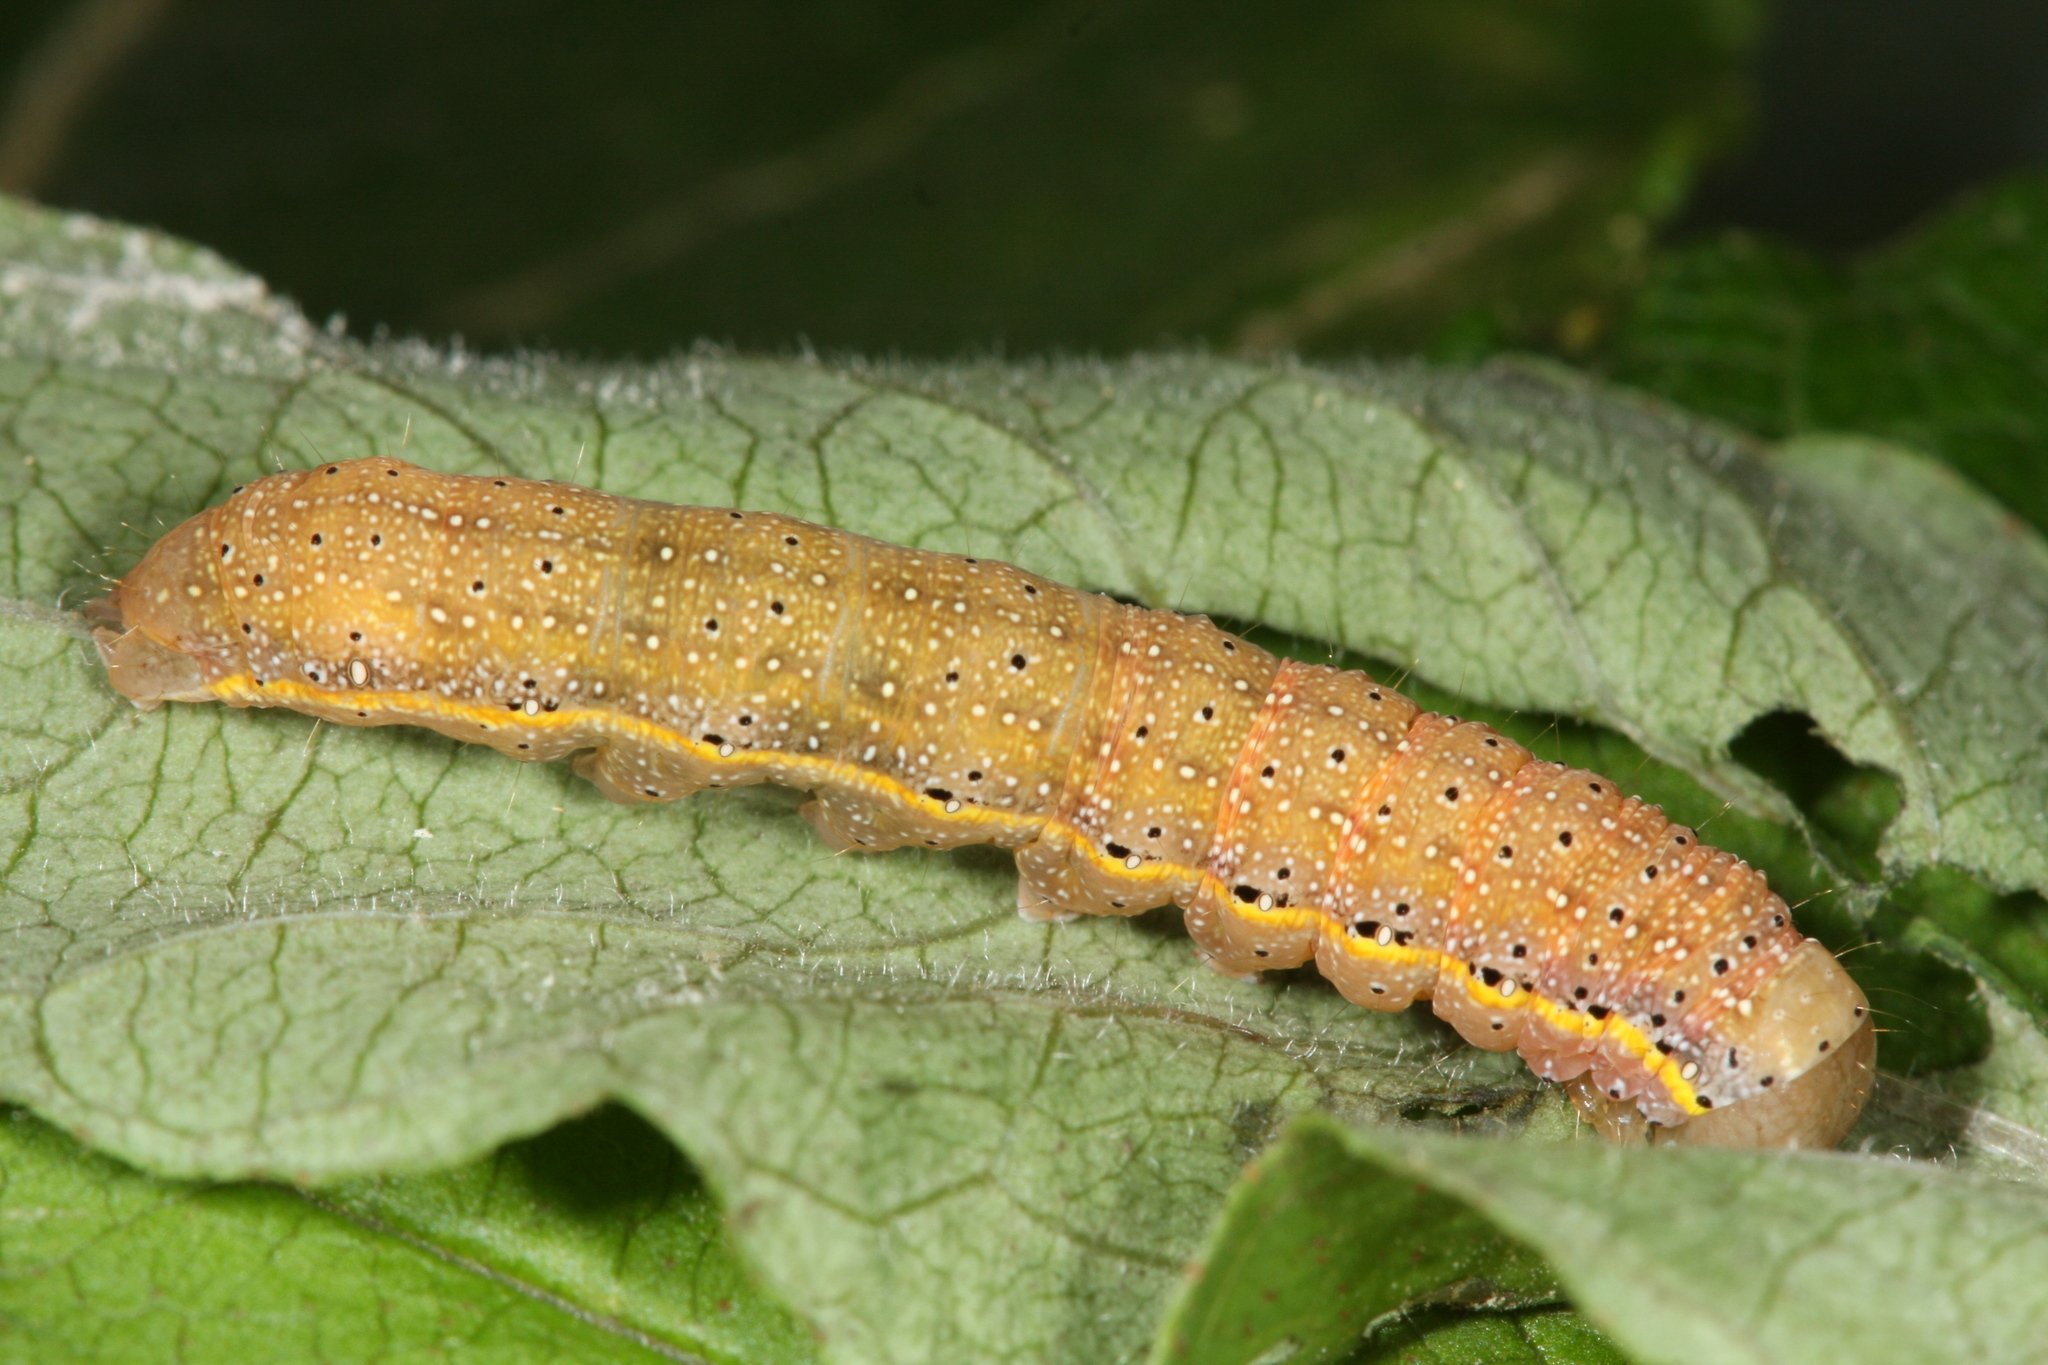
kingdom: Animalia
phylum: Arthropoda
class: Insecta
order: Lepidoptera
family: Noctuidae
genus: Lacanobia
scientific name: Lacanobia oleracea
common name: Bright-line brown-eye
